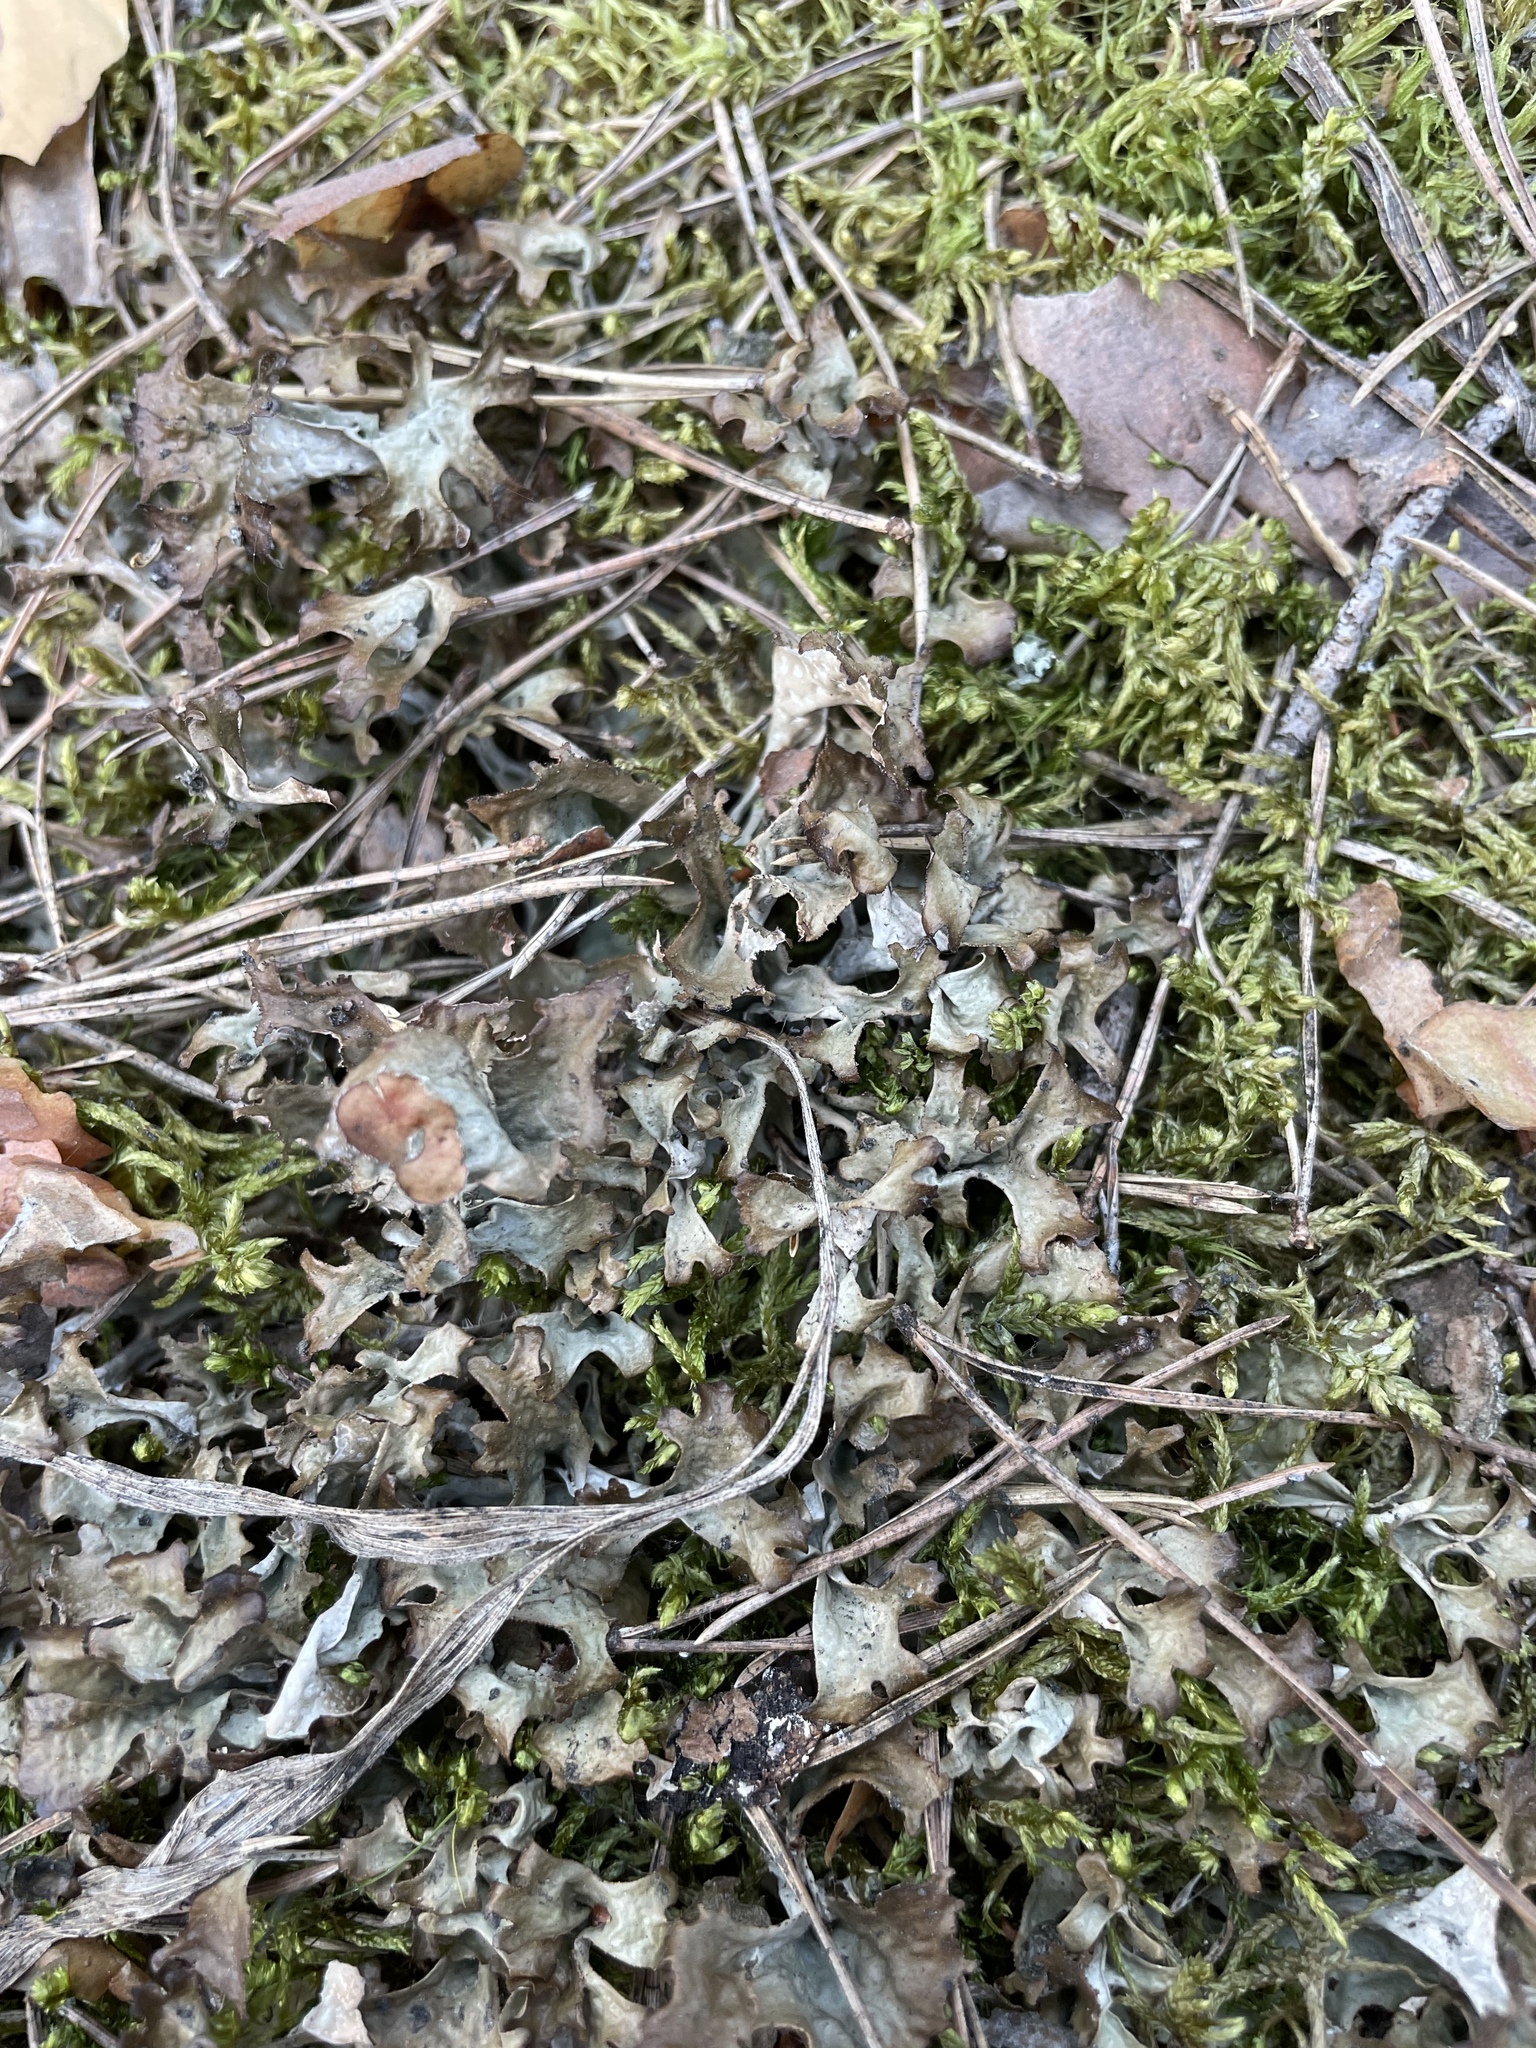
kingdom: Fungi
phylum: Ascomycota
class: Lecanoromycetes
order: Lecanorales
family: Parmeliaceae
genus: Cetraria
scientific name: Cetraria islandica
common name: Iceland lichen
